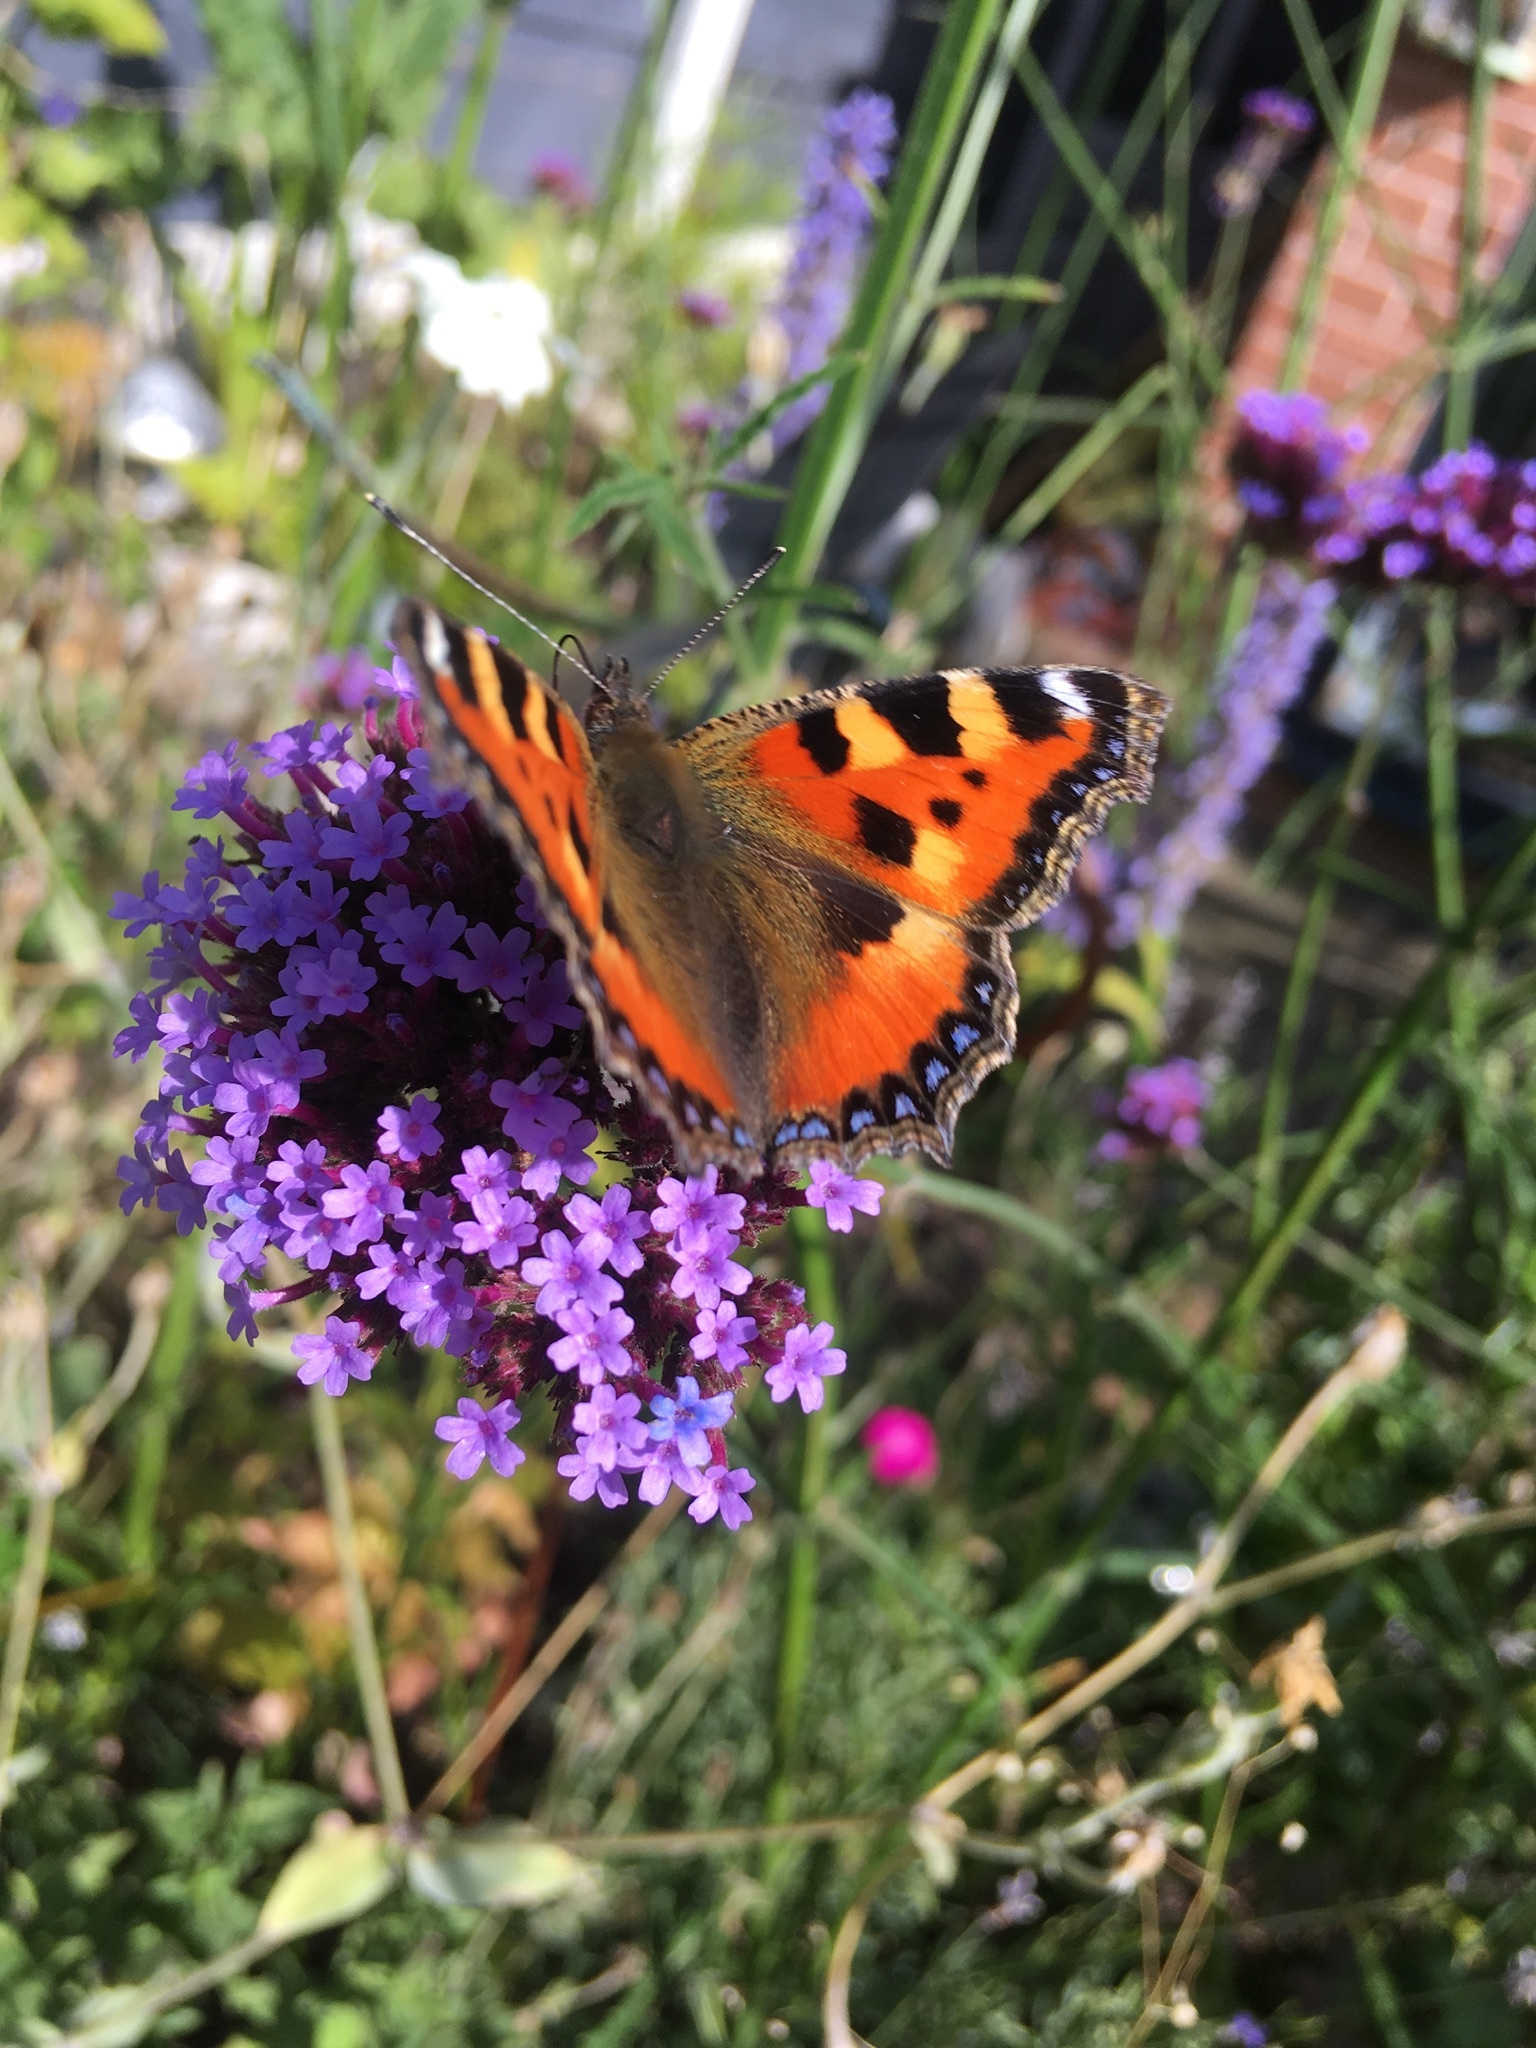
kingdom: Animalia
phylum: Arthropoda
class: Insecta
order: Lepidoptera
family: Nymphalidae
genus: Aglais
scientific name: Aglais urticae
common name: Small tortoiseshell
